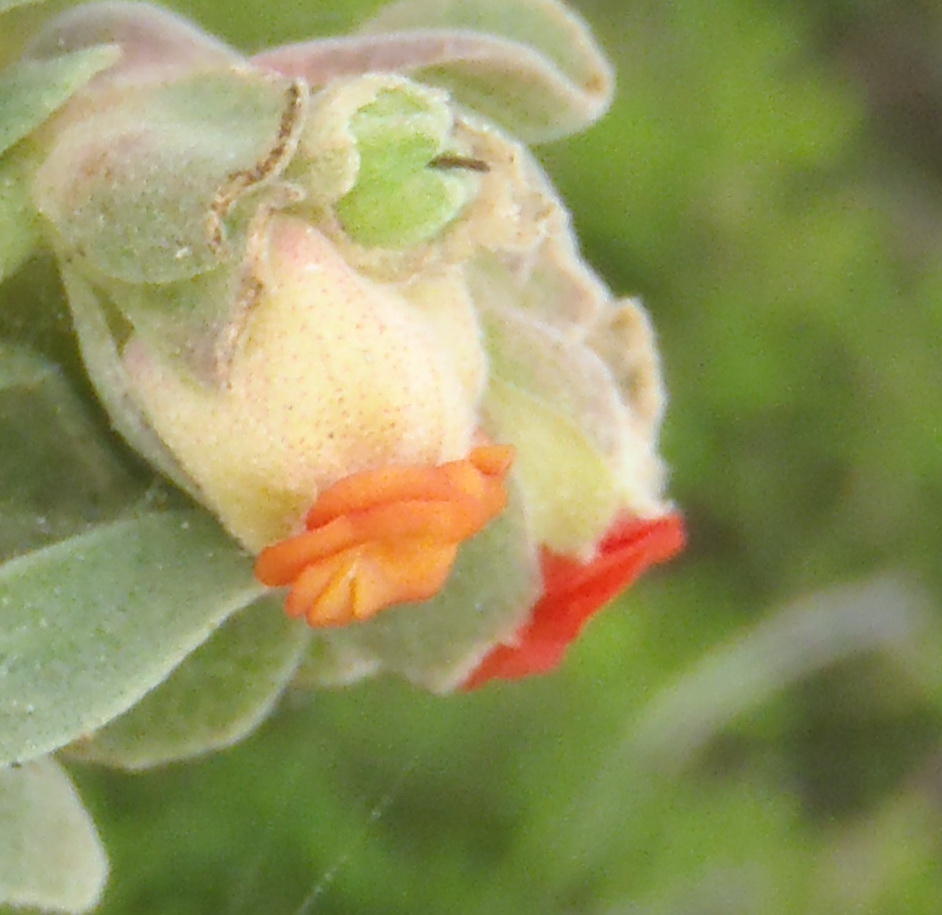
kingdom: Plantae
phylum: Tracheophyta
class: Magnoliopsida
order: Malvales
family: Malvaceae
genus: Hermannia
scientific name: Hermannia trifoliata
